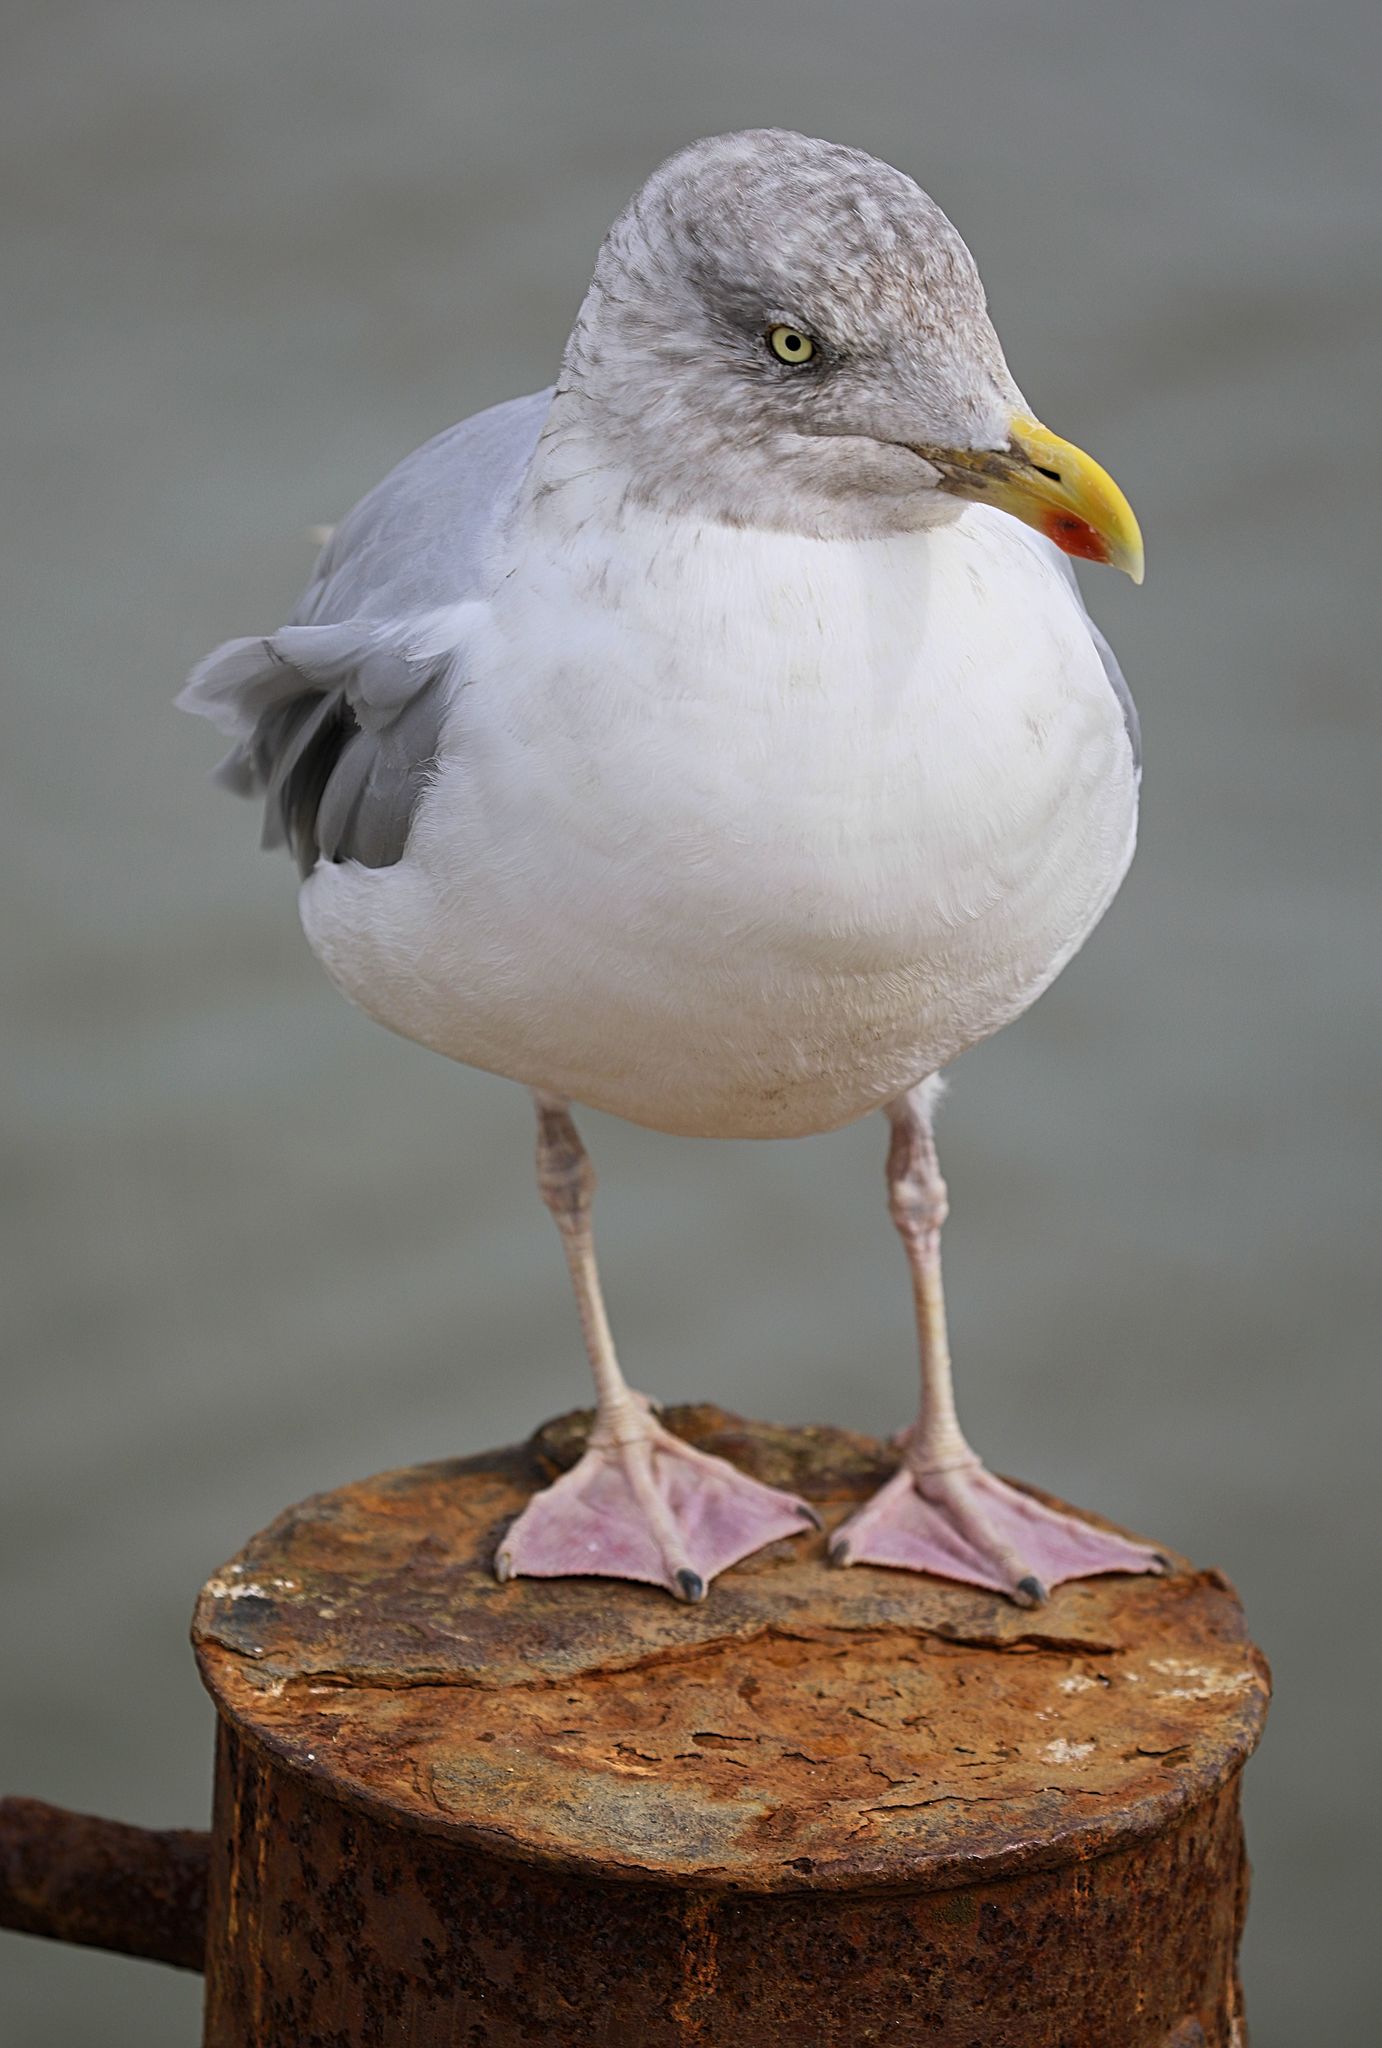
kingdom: Animalia
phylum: Chordata
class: Aves
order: Charadriiformes
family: Laridae
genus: Larus
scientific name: Larus argentatus
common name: Herring gull
